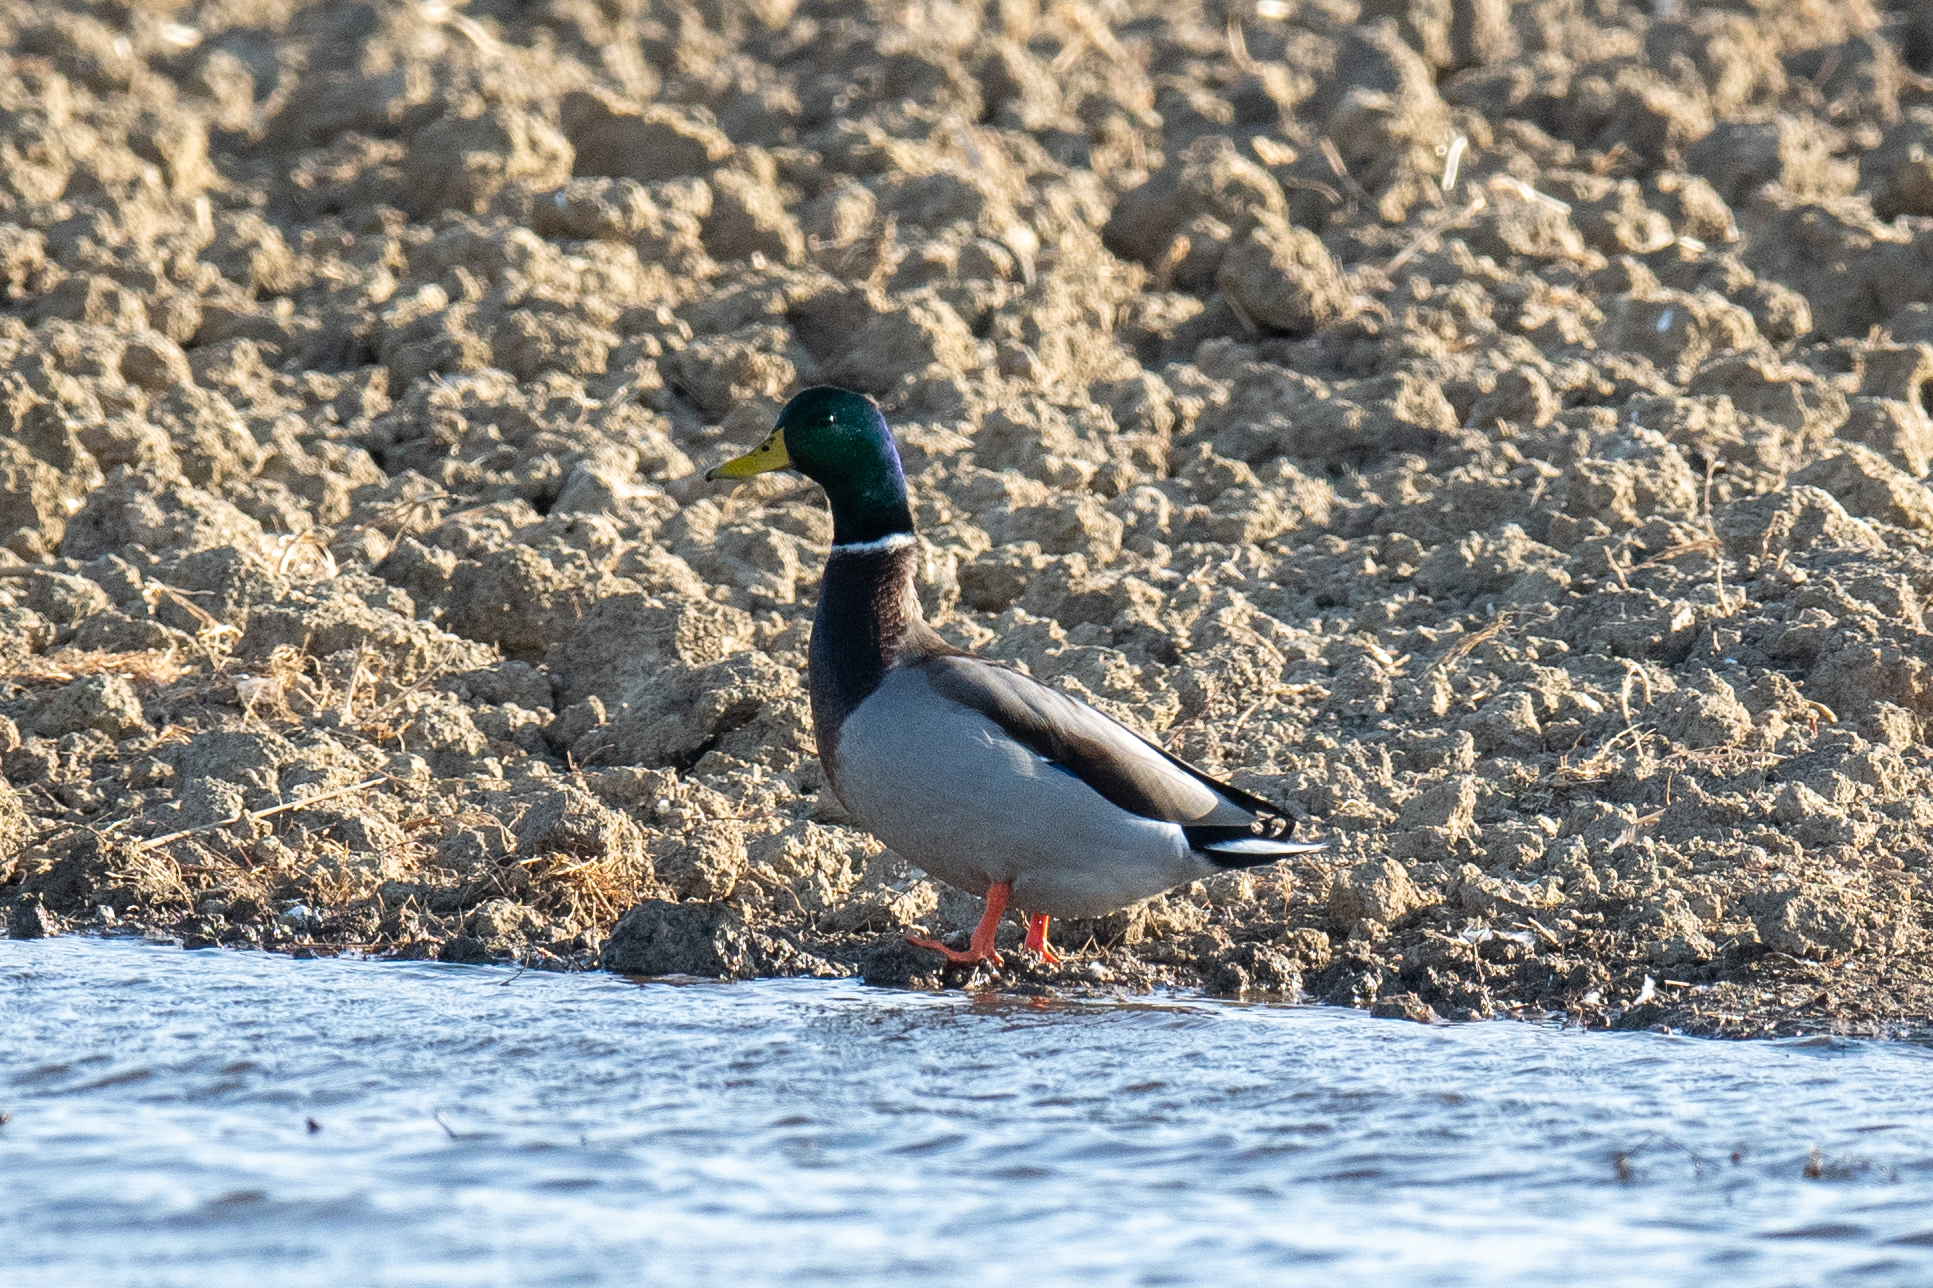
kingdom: Animalia
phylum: Chordata
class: Aves
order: Anseriformes
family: Anatidae
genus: Anas
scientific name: Anas platyrhynchos
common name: Mallard
